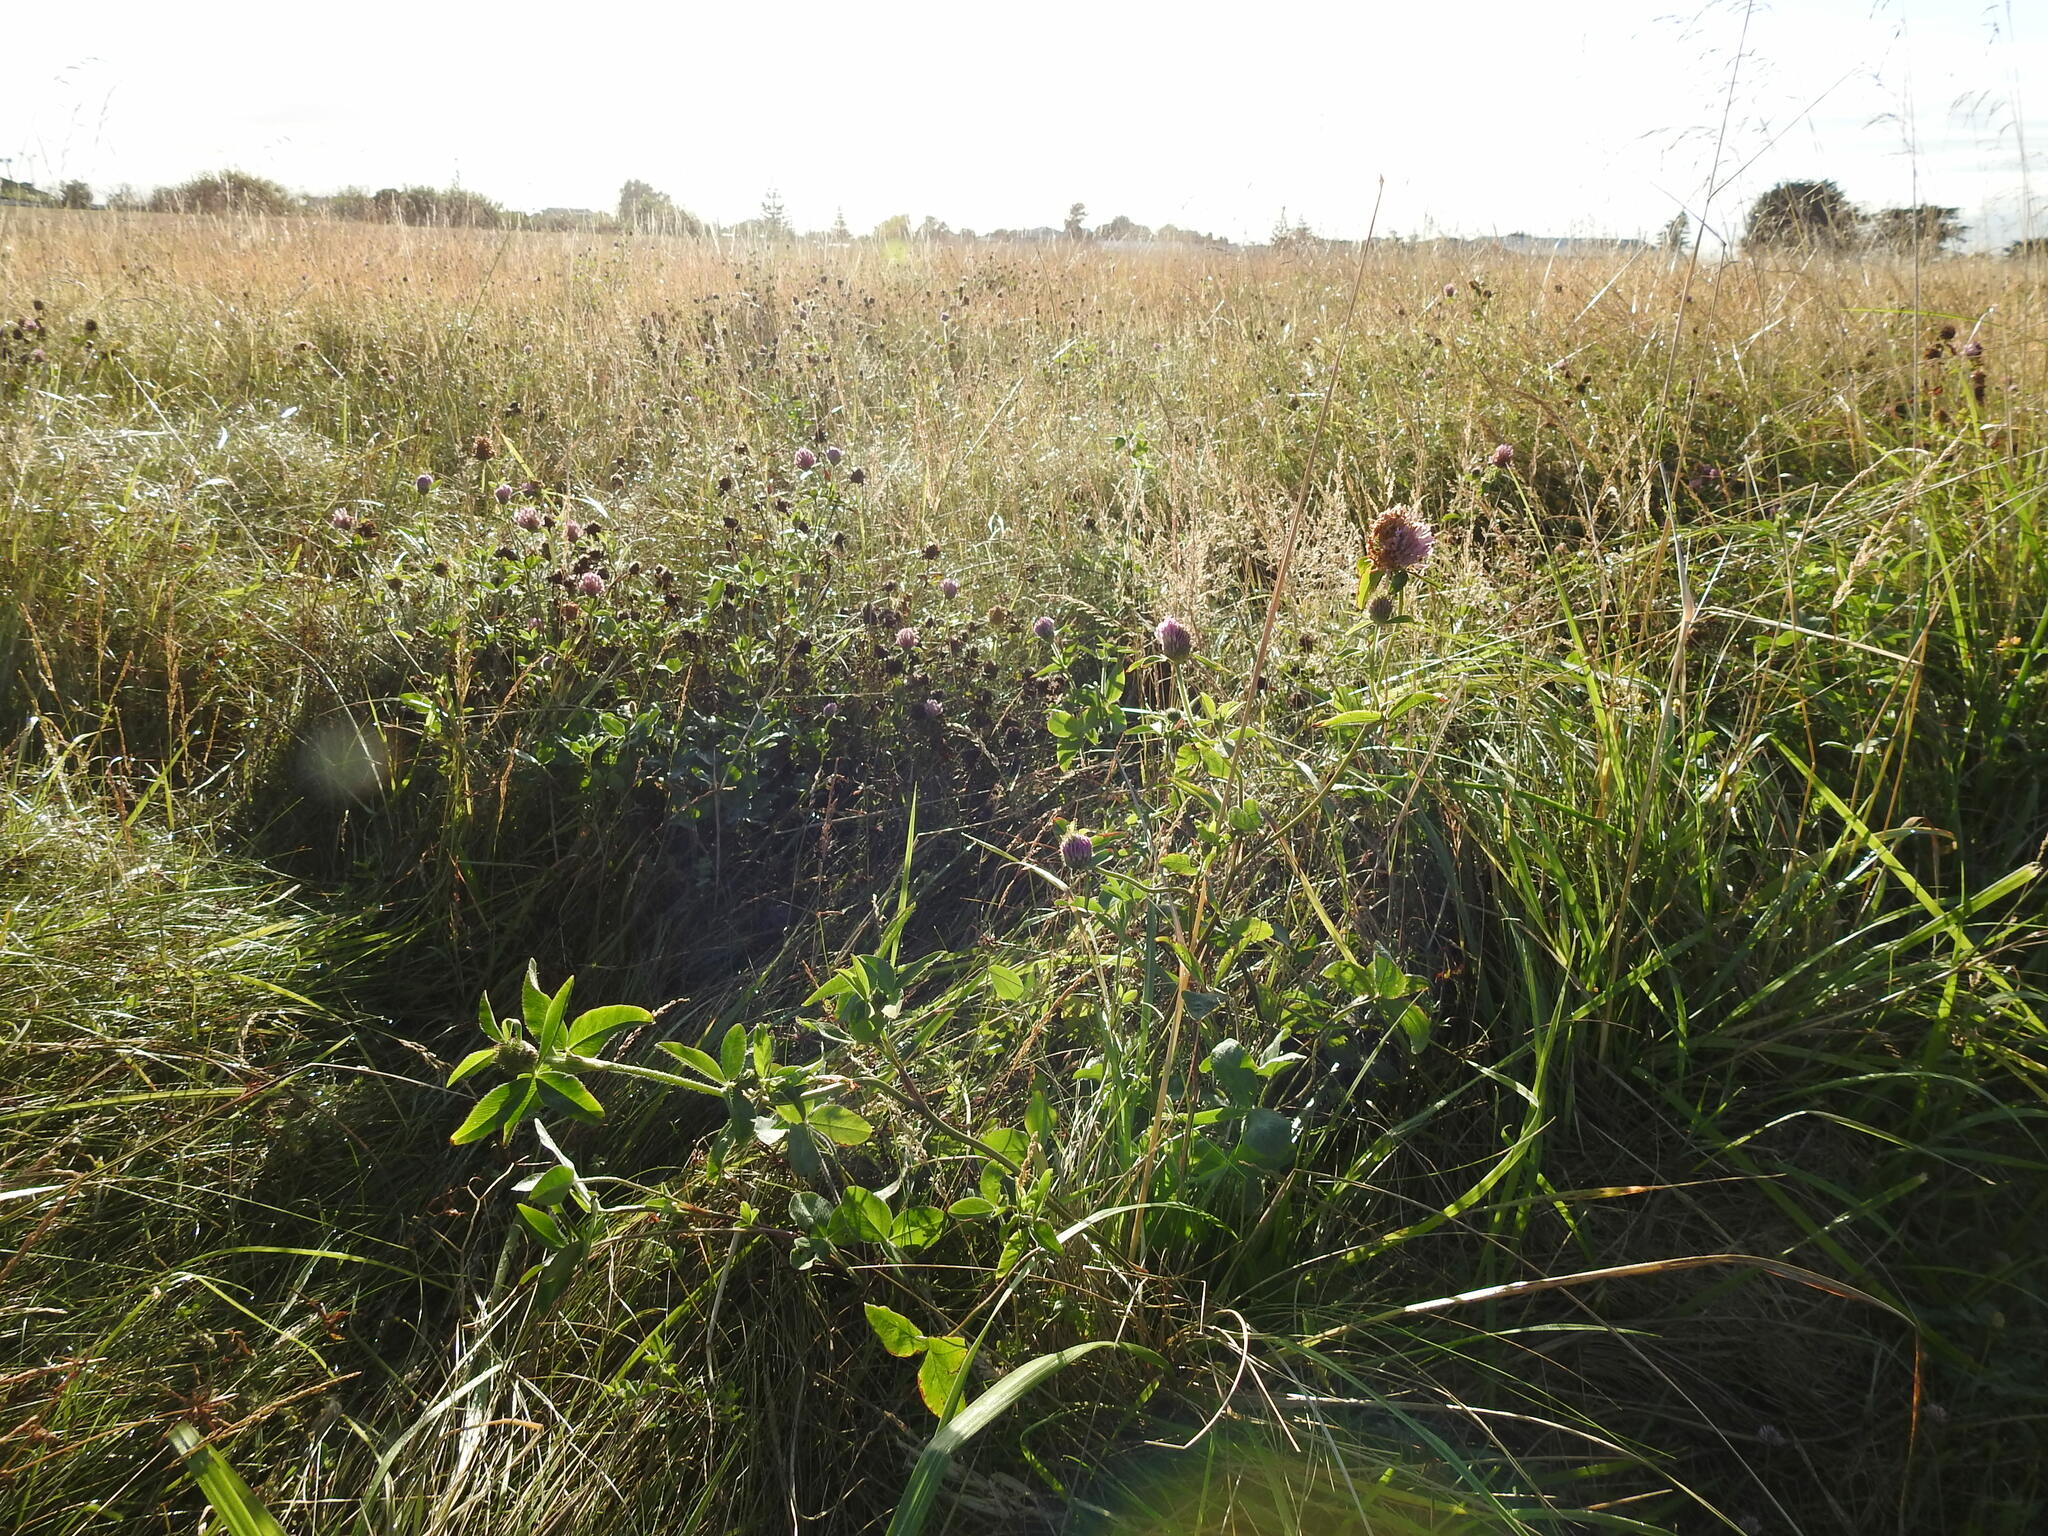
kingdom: Plantae
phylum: Tracheophyta
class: Magnoliopsida
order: Fabales
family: Fabaceae
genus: Trifolium
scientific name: Trifolium pratense
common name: Red clover
